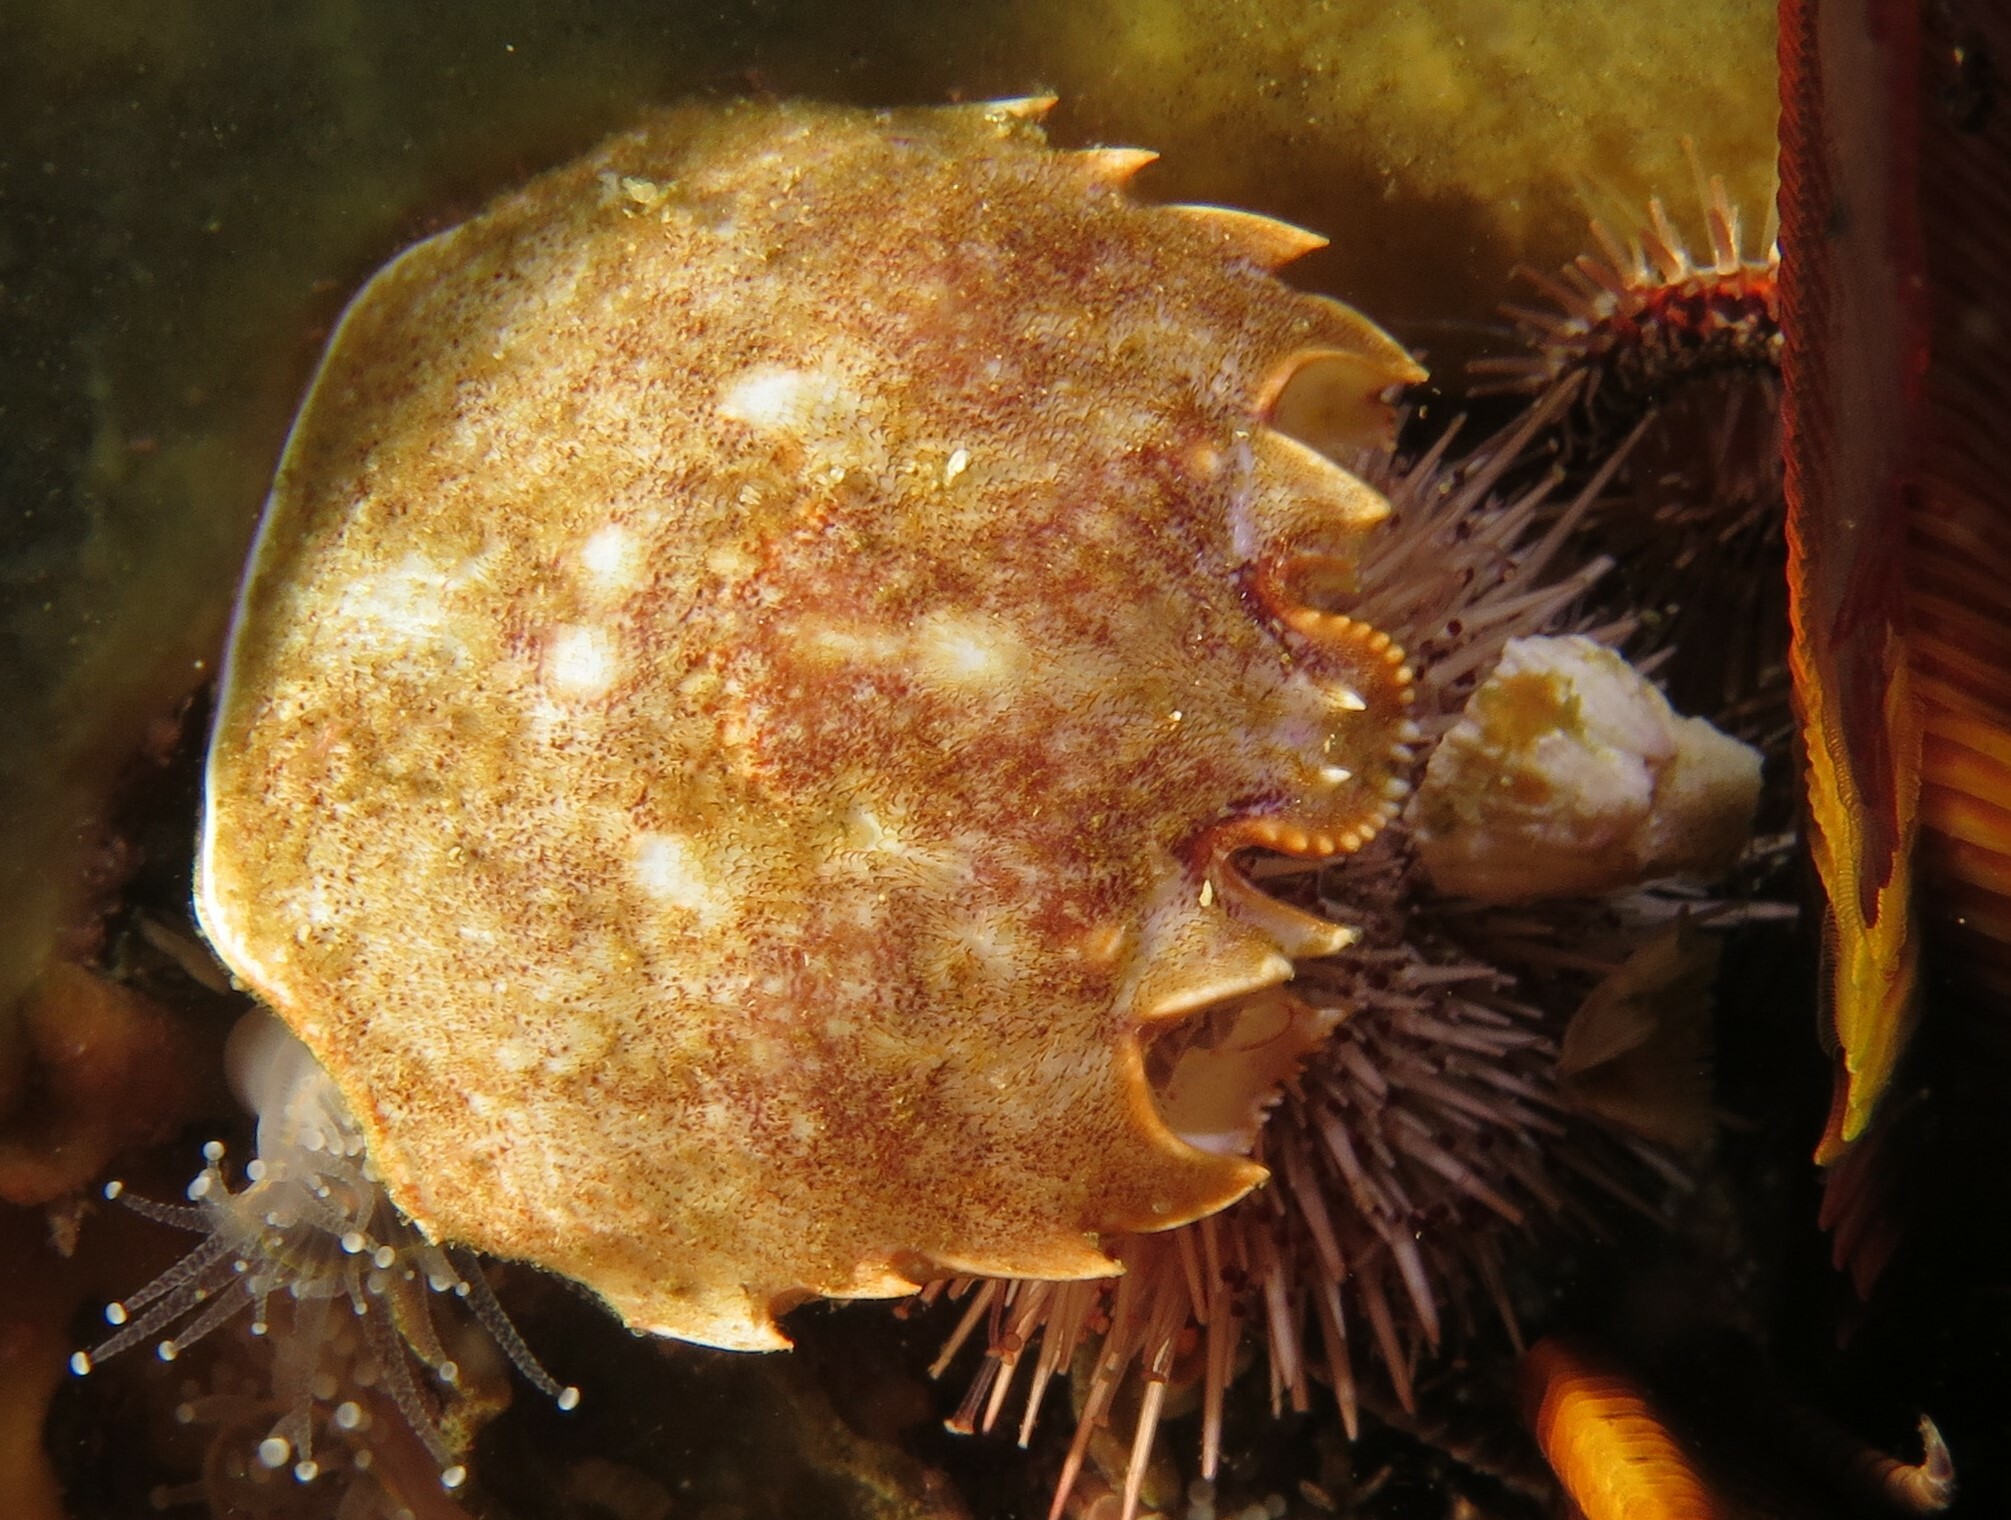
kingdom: Animalia
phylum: Arthropoda
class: Malacostraca
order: Decapoda
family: Plagusiidae
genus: Guinusia
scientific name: Guinusia chabrus
